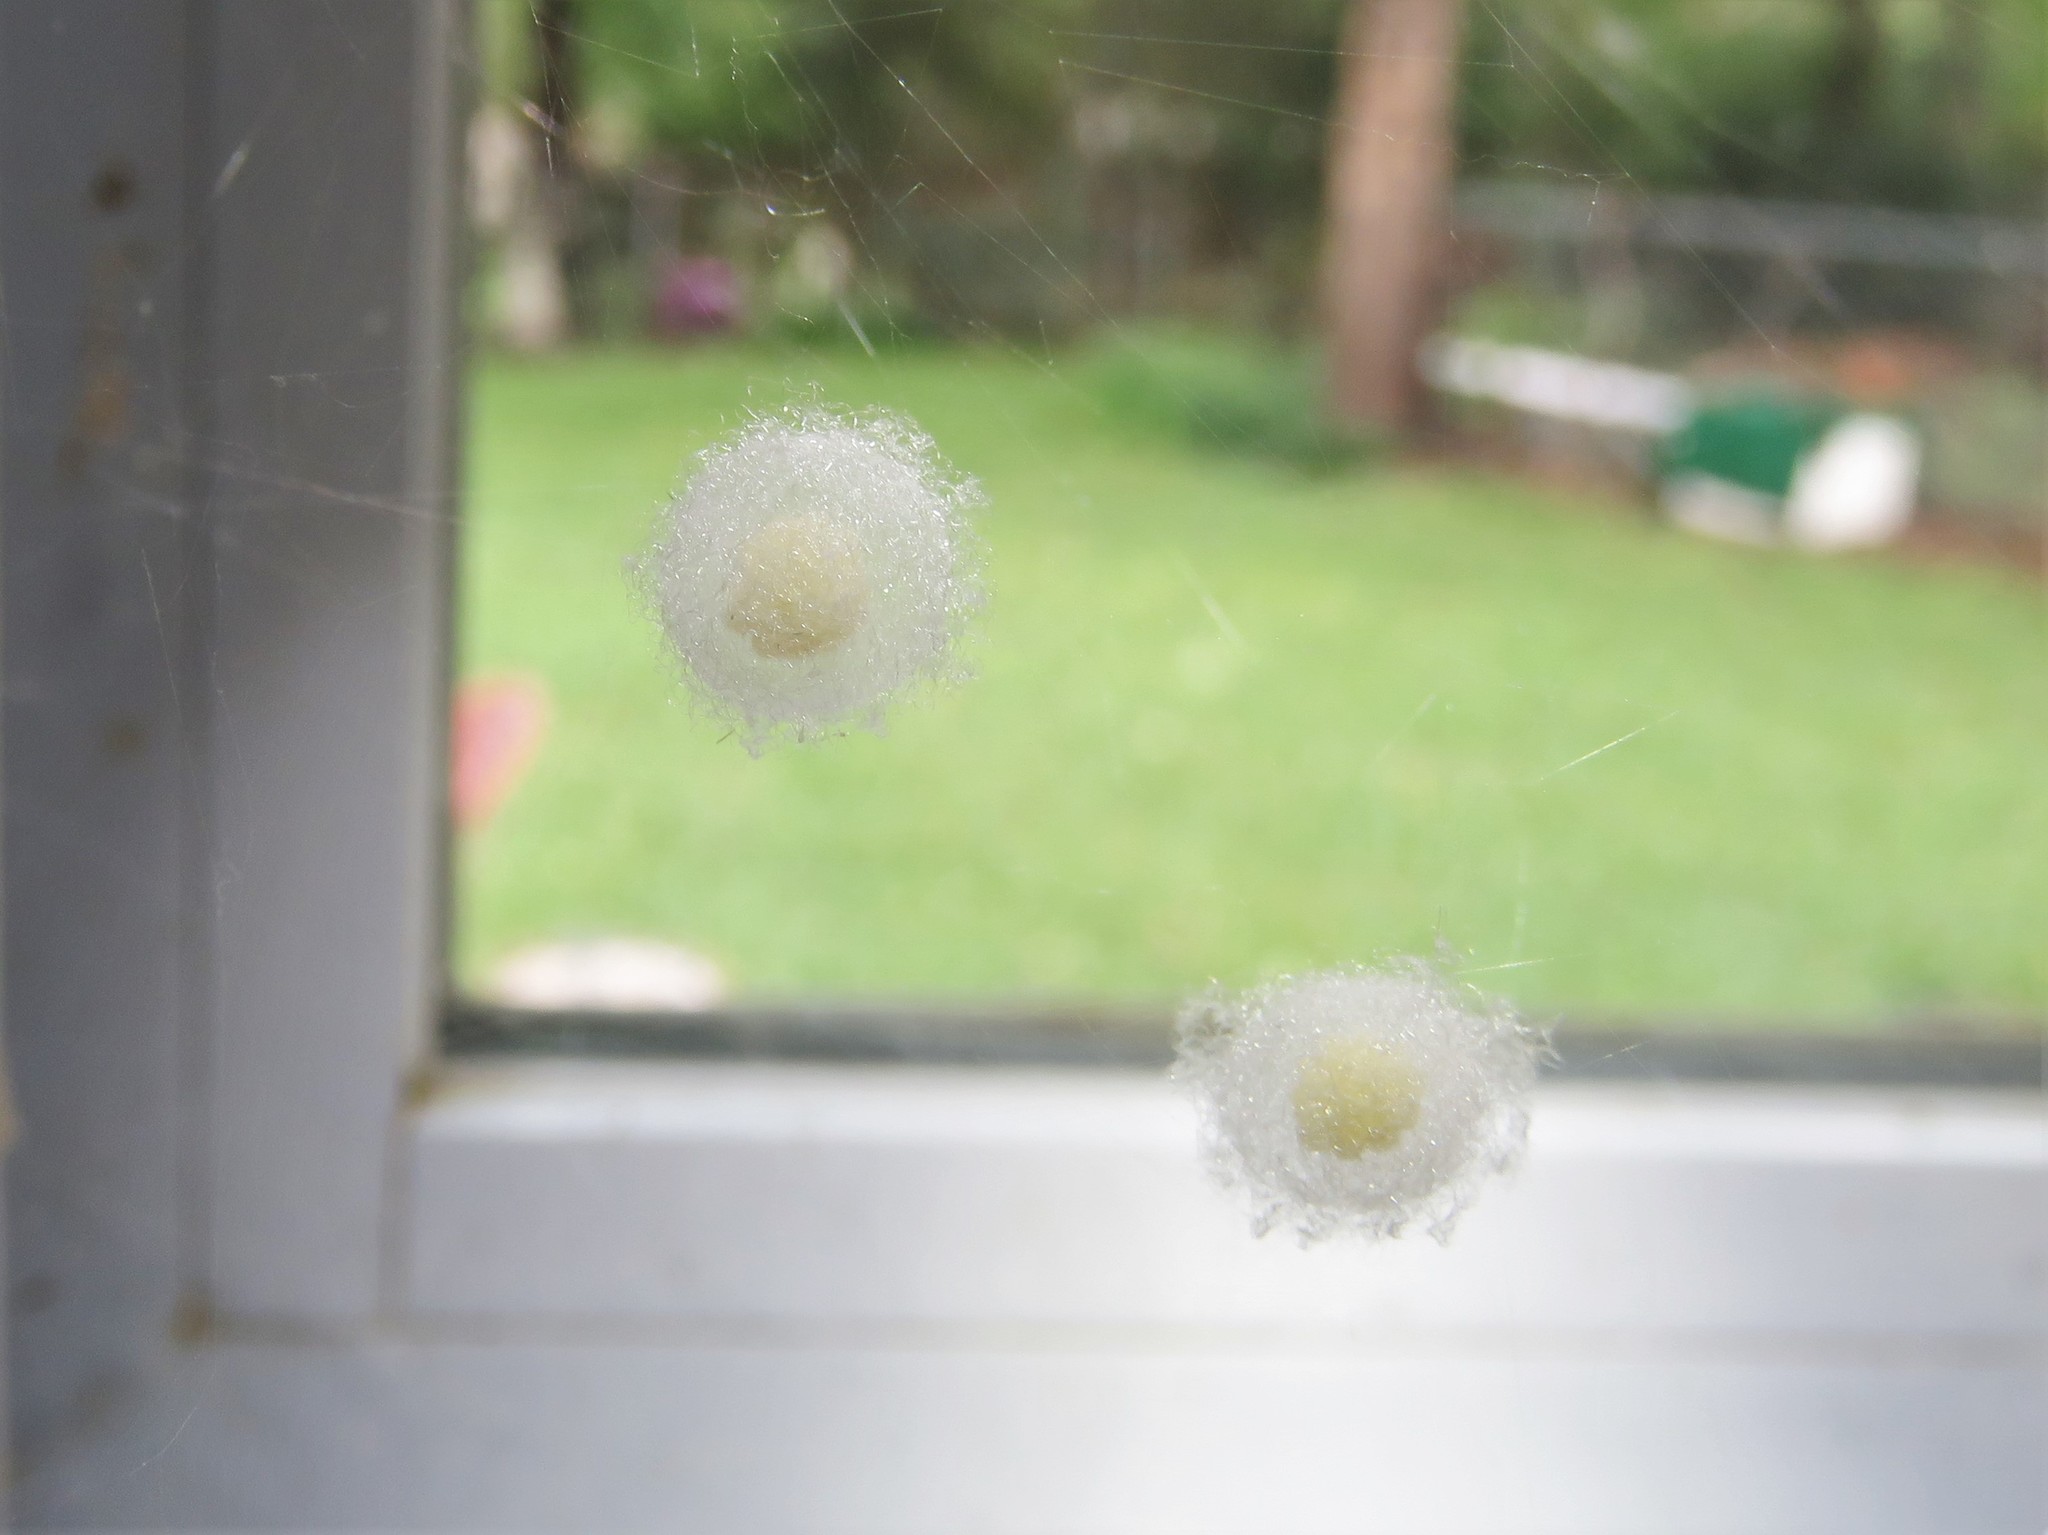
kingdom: Animalia
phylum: Arthropoda
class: Arachnida
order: Araneae
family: Theridiidae
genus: Steatoda
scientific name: Steatoda triangulosa
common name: Triangulate bud spider
